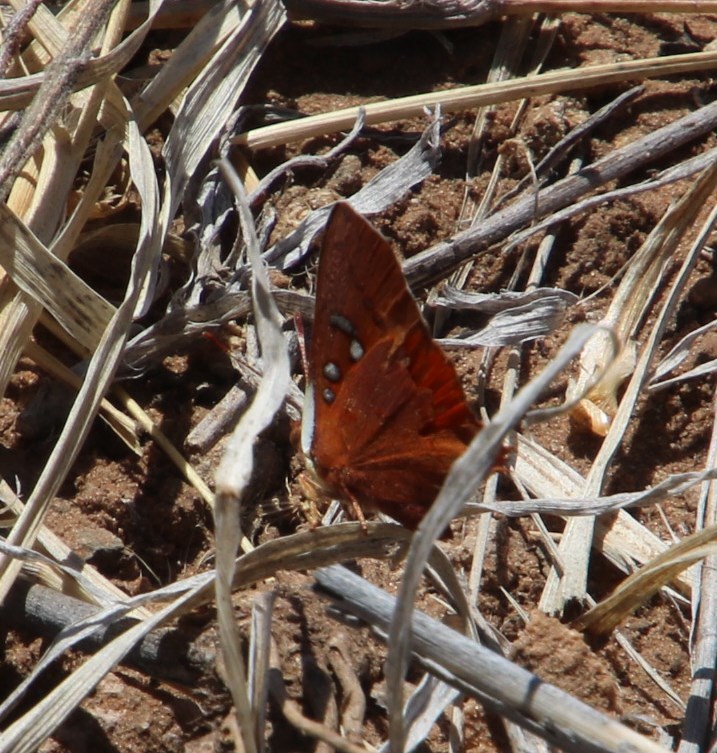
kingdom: Animalia
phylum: Arthropoda
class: Insecta
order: Lepidoptera
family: Lycaenidae
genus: Axiocerses
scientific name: Axiocerses amanga
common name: Bush scarlet
